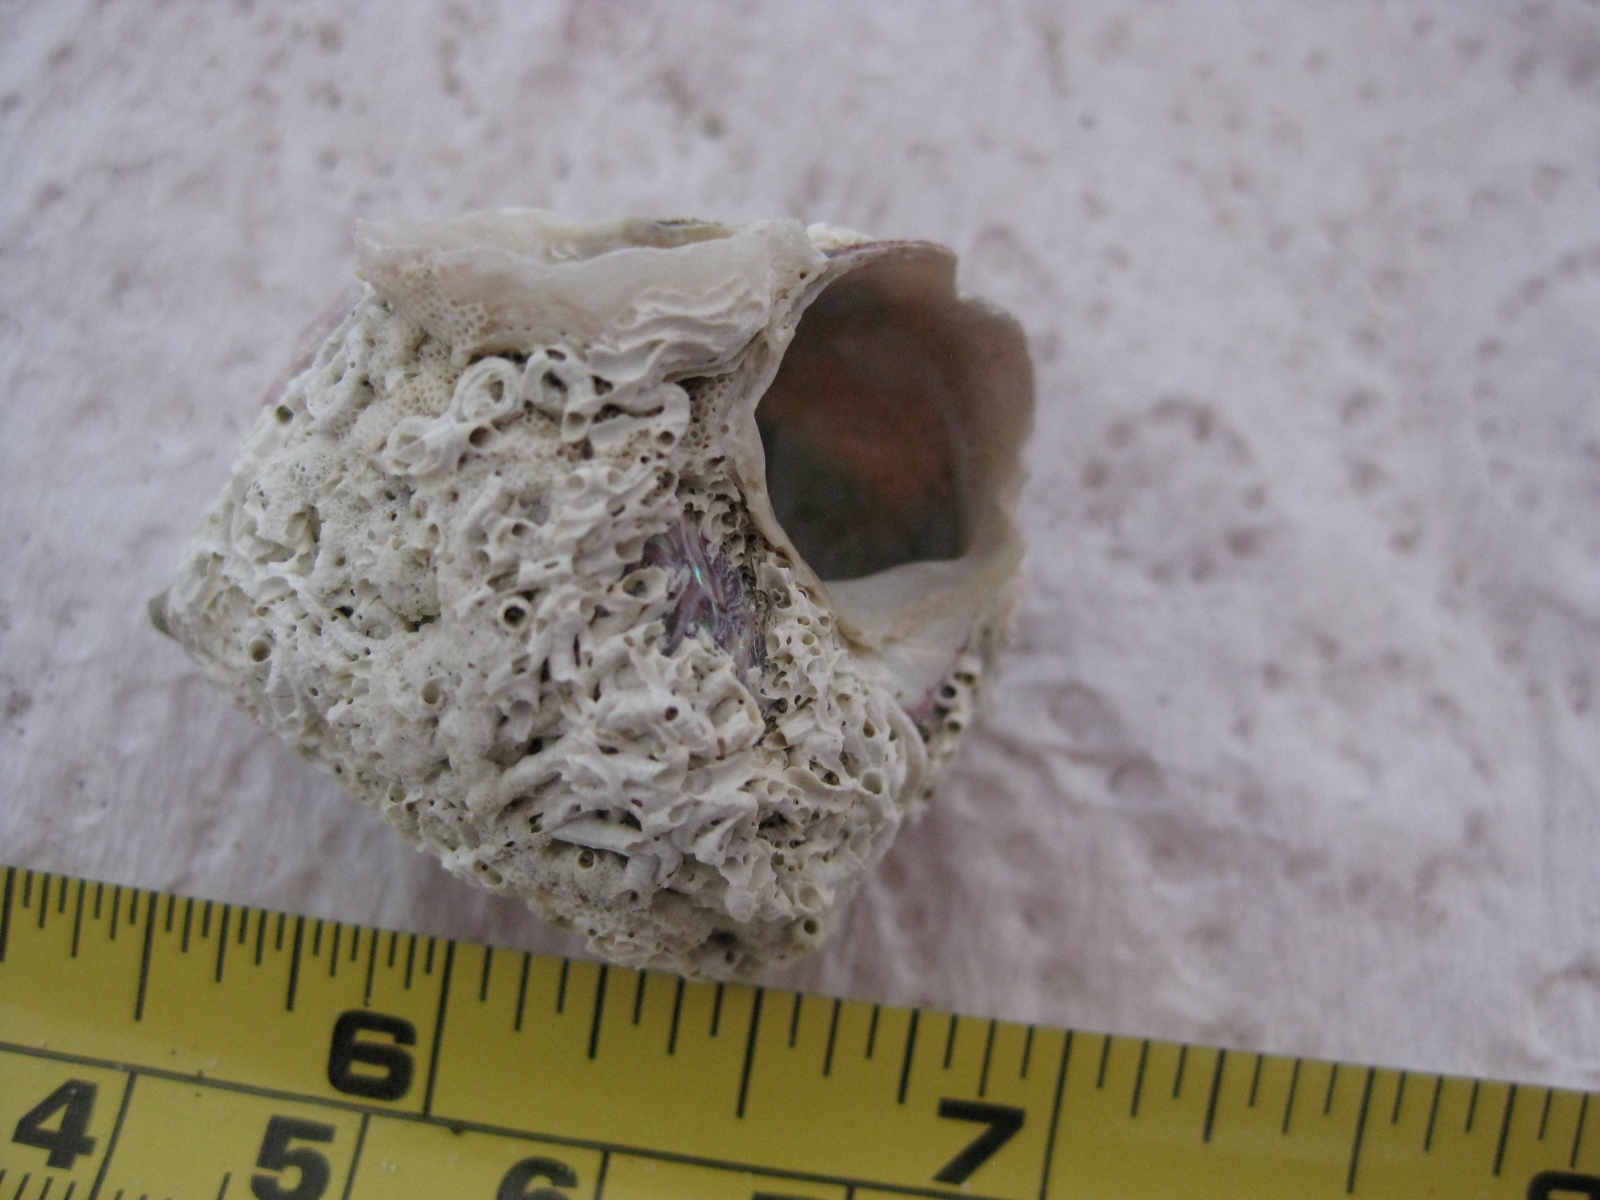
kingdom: Animalia
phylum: Mollusca
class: Gastropoda
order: Trochida
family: Trochidae
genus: Cantharidus
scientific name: Cantharidus opalus
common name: Opal jewel topsnail
